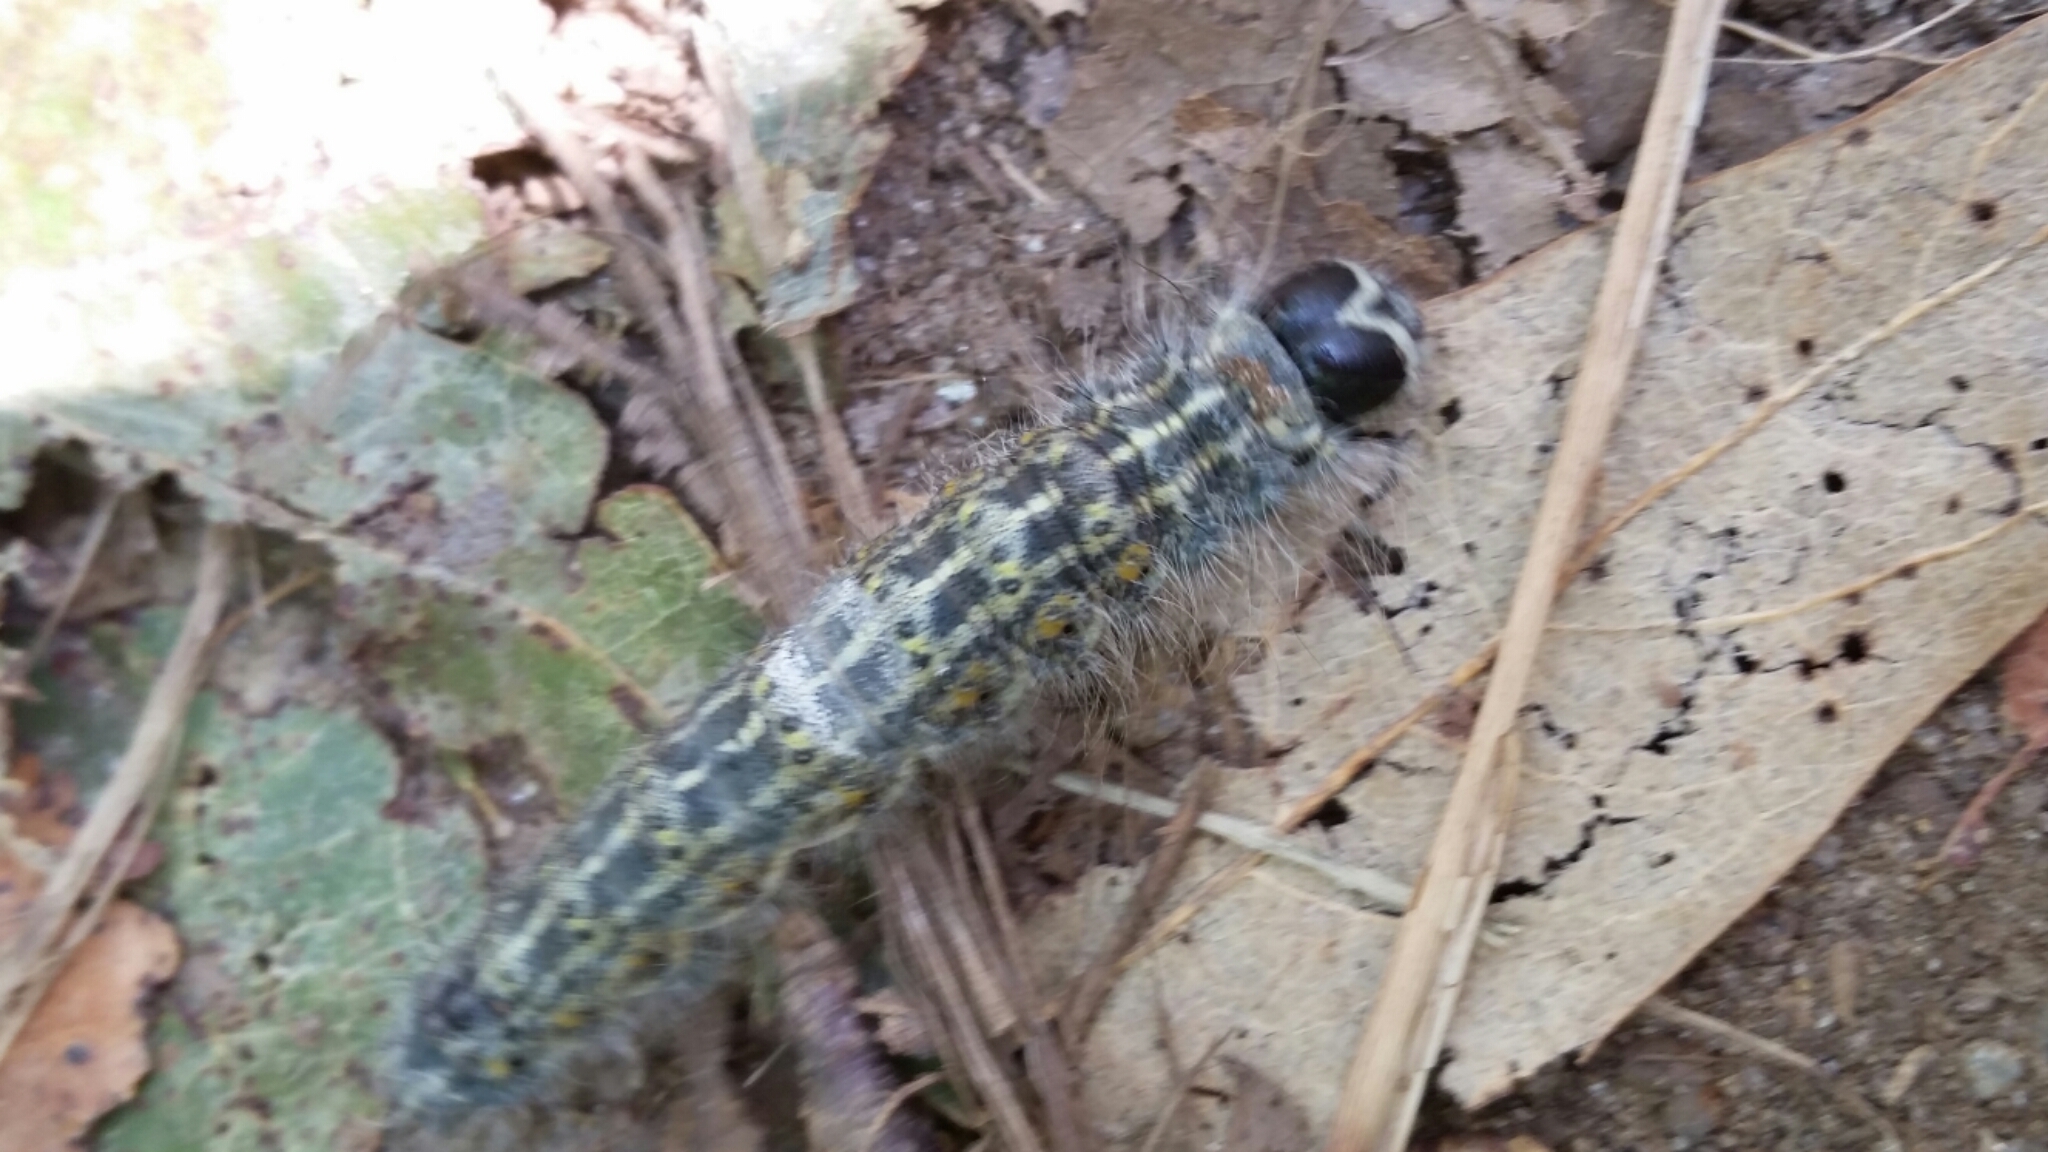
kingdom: Animalia
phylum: Arthropoda
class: Insecta
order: Lepidoptera
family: Noctuidae
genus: Acronicta
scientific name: Acronicta lobeliae
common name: Greater oak dagger
